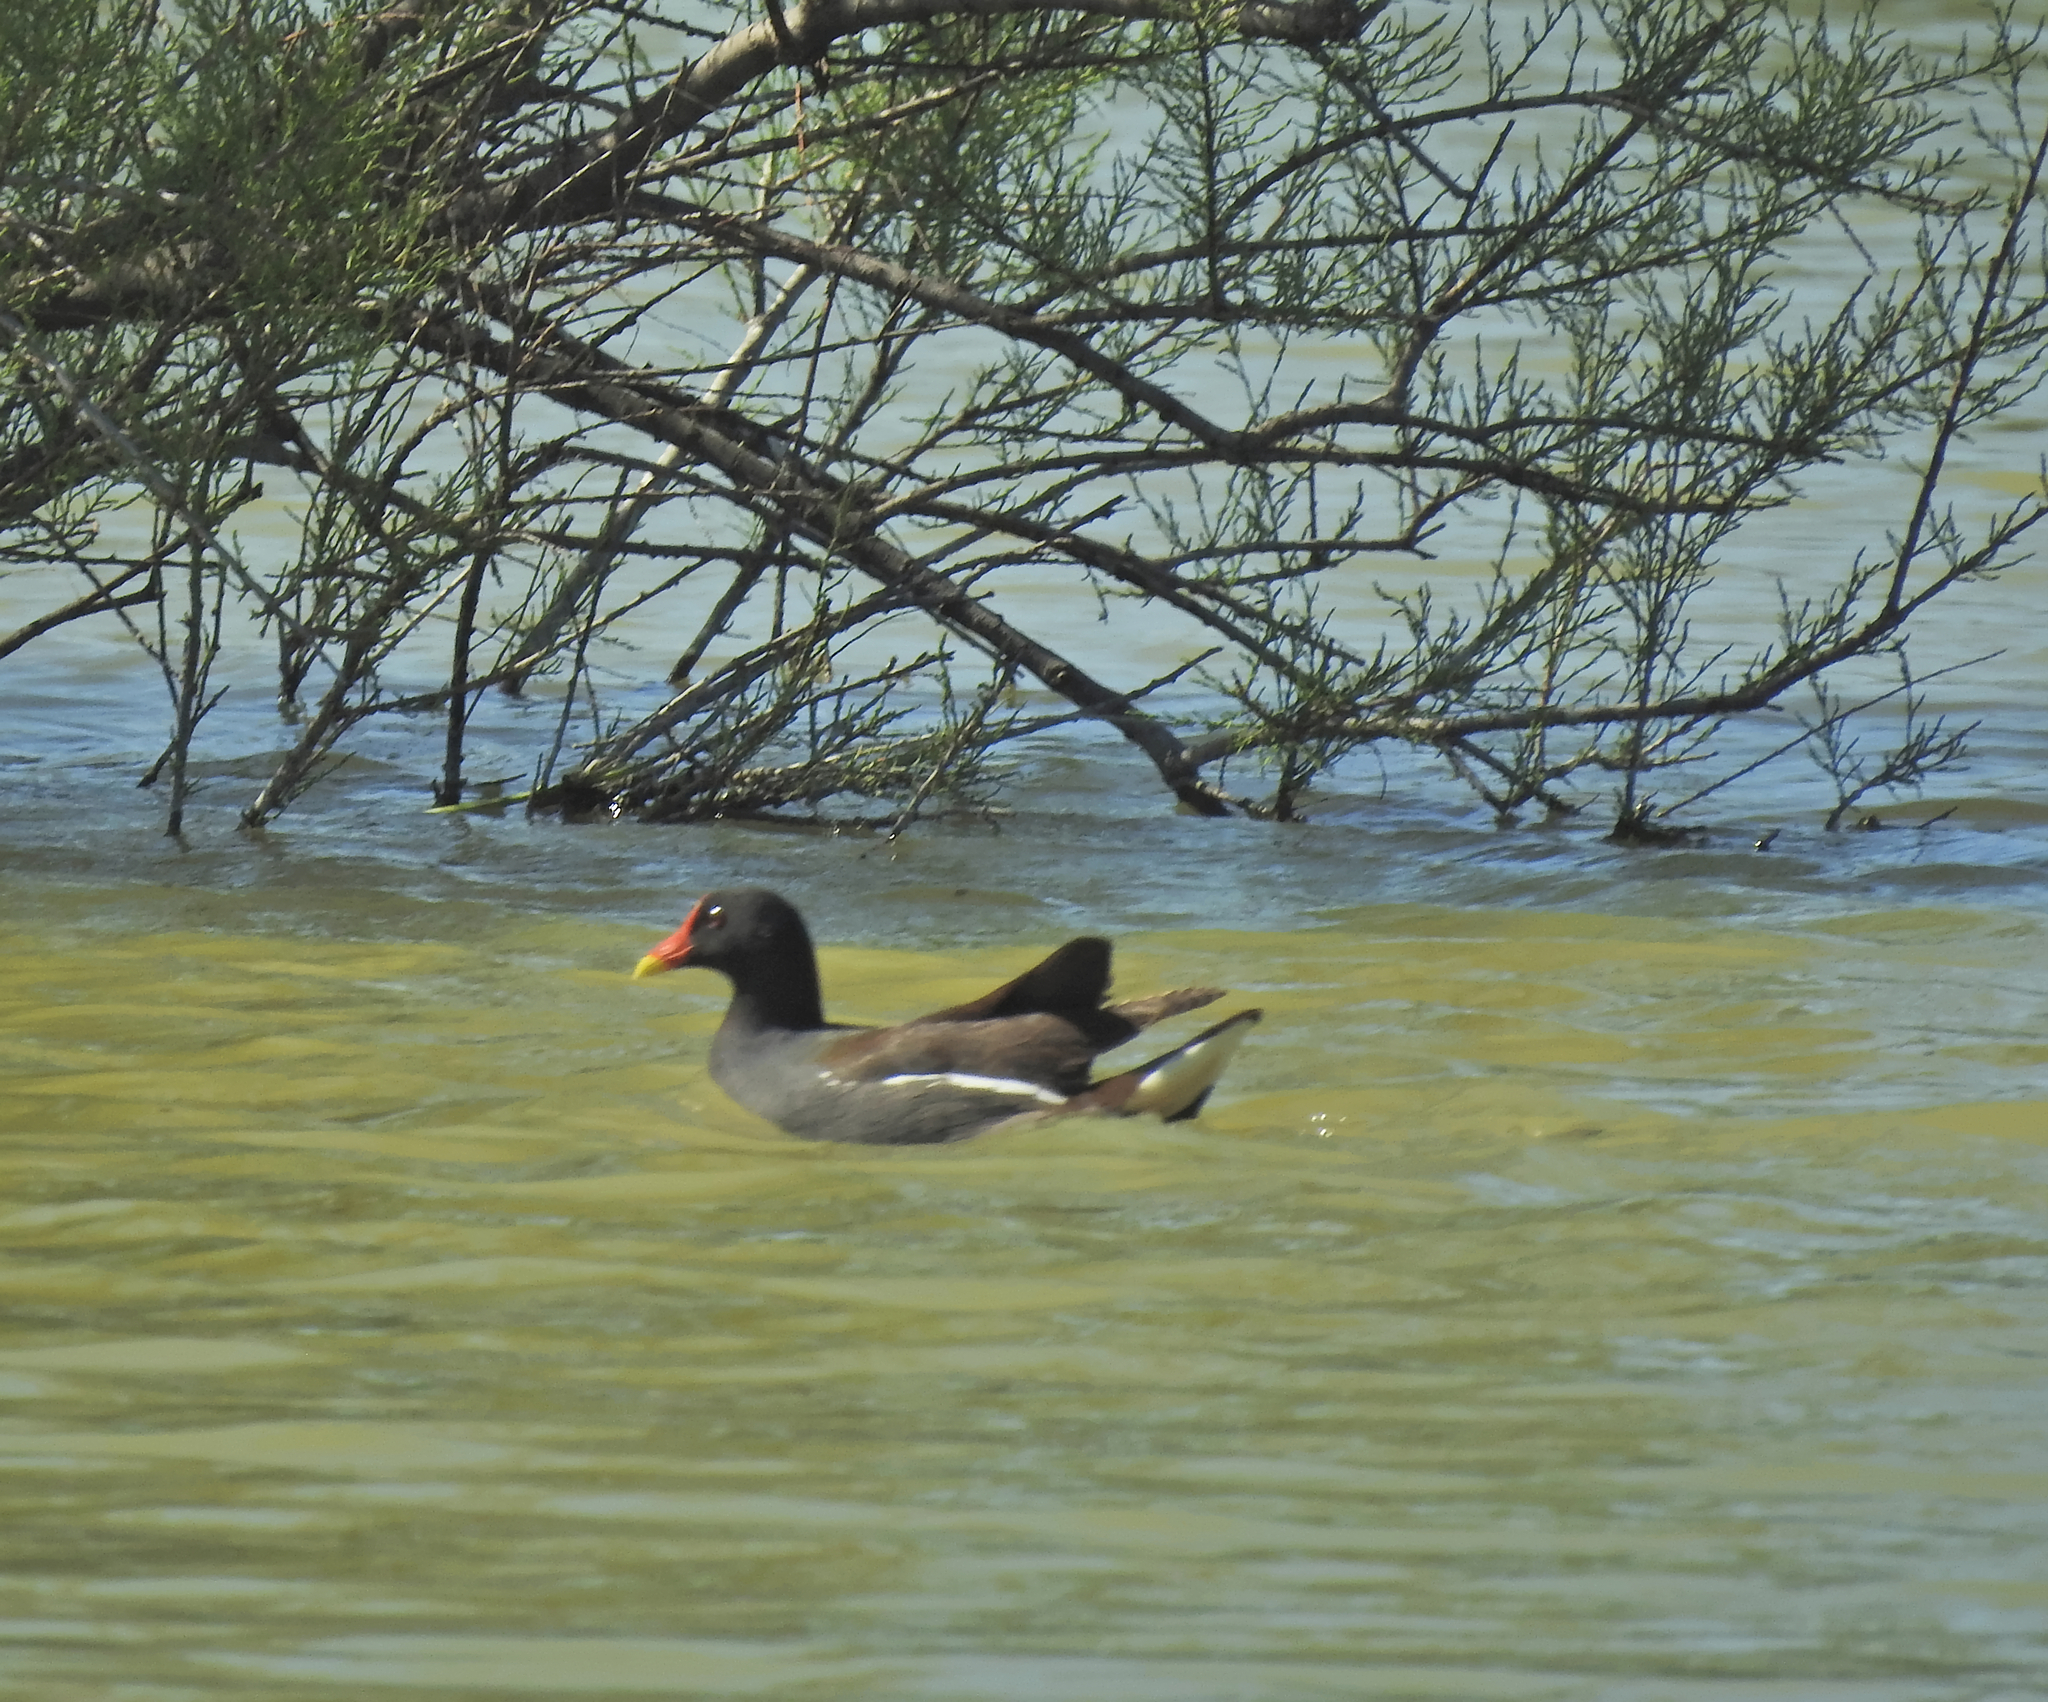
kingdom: Animalia
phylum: Chordata
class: Aves
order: Gruiformes
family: Rallidae
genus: Gallinula
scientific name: Gallinula chloropus
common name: Common moorhen
